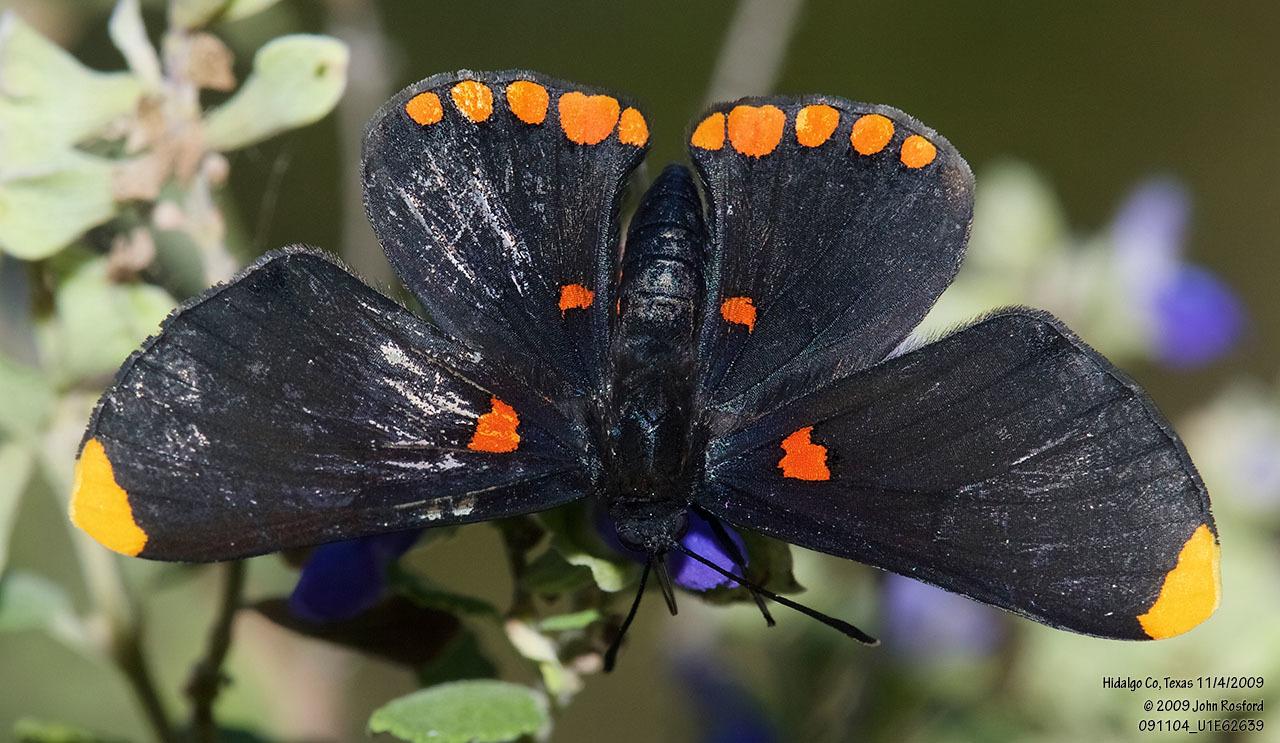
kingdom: Animalia
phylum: Arthropoda
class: Insecta
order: Lepidoptera
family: Lycaenidae
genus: Melanis
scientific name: Melanis pixe
